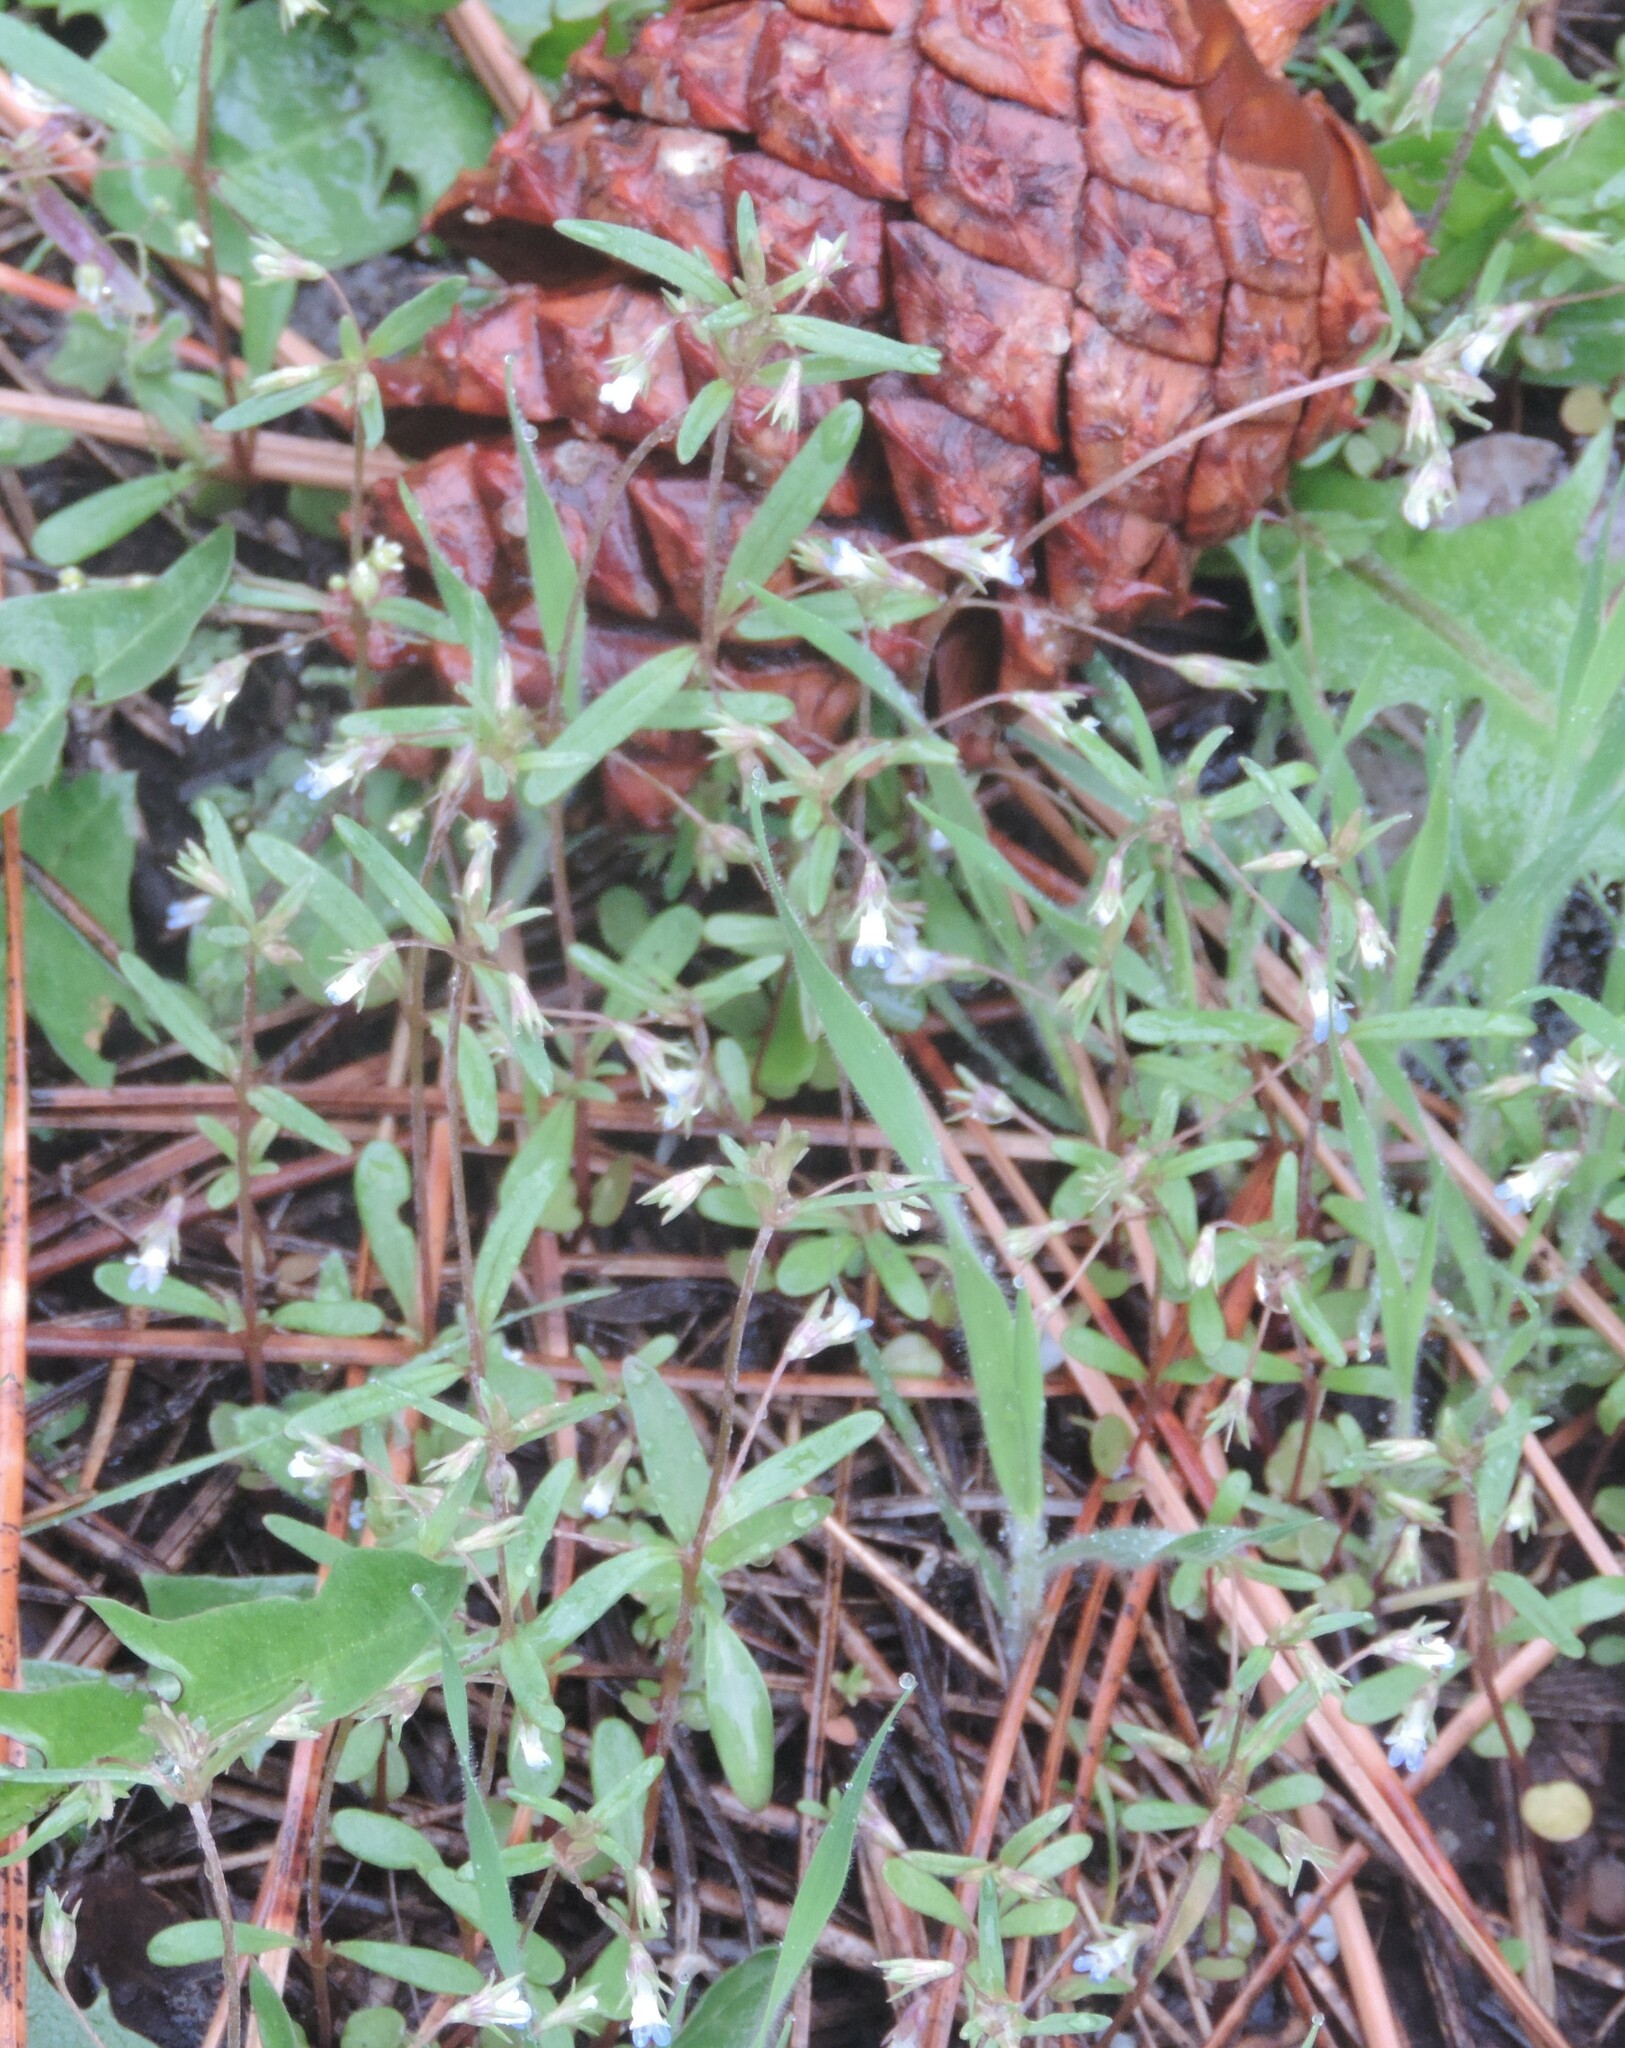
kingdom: Plantae
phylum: Tracheophyta
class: Magnoliopsida
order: Lamiales
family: Plantaginaceae
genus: Collinsia
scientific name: Collinsia parviflora
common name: Blue-lips
